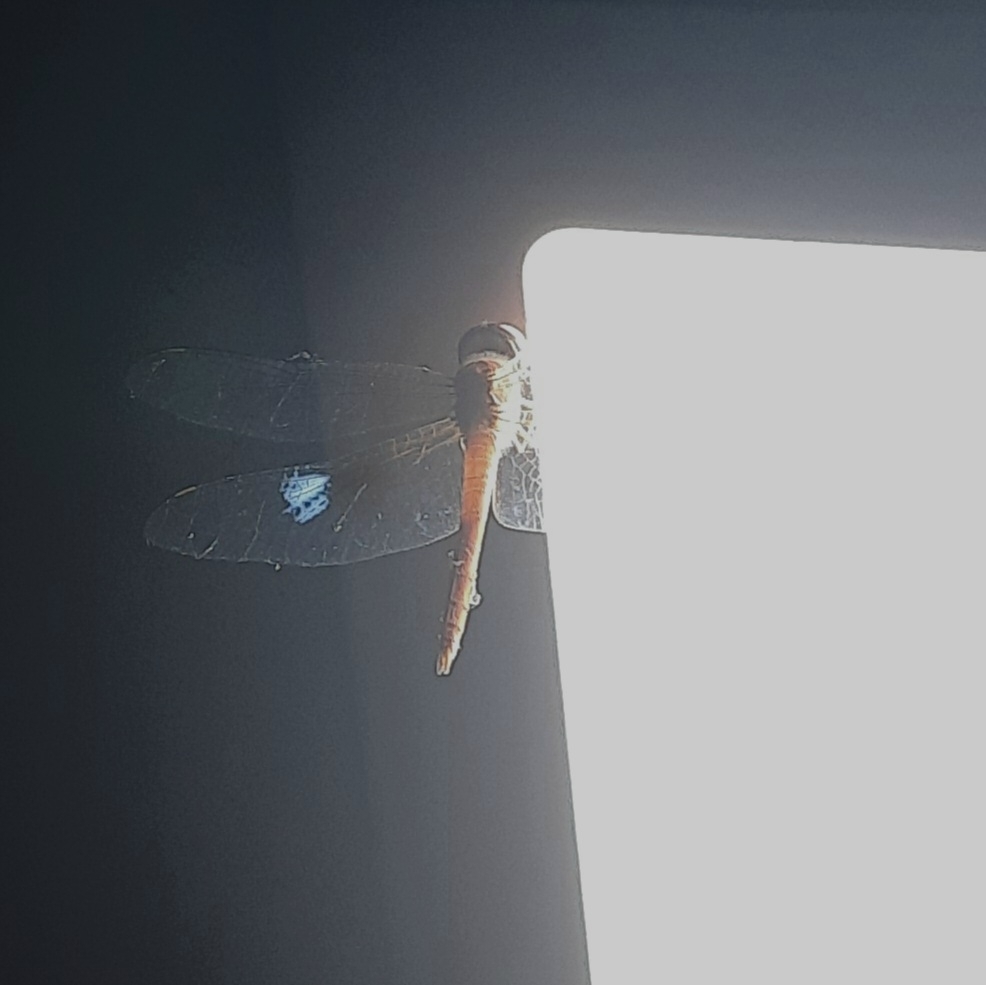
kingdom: Animalia
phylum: Arthropoda
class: Insecta
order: Odonata
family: Libellulidae
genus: Tholymis
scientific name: Tholymis tillarga
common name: Coral-tailed cloud wing
